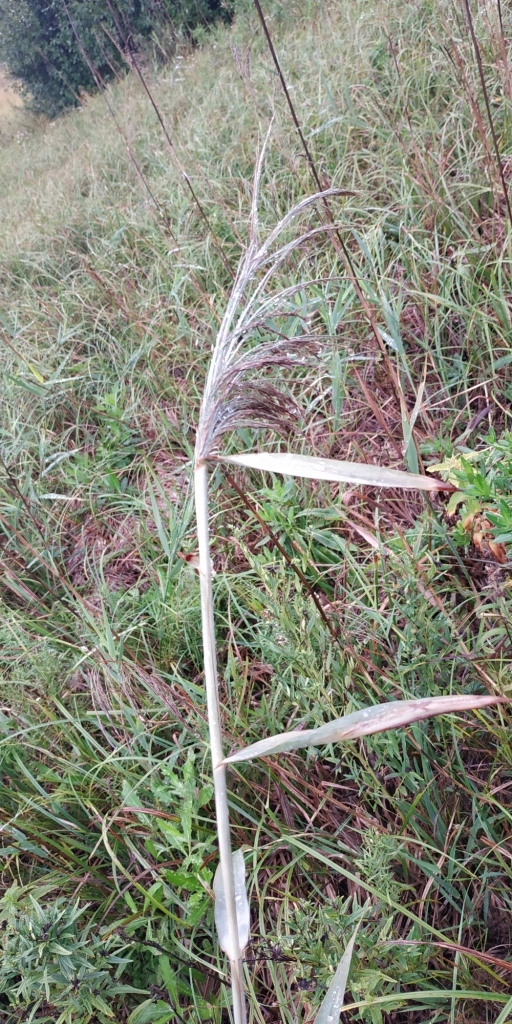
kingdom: Plantae
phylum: Tracheophyta
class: Liliopsida
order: Poales
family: Poaceae
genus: Phragmites
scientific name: Phragmites australis
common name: Common reed
